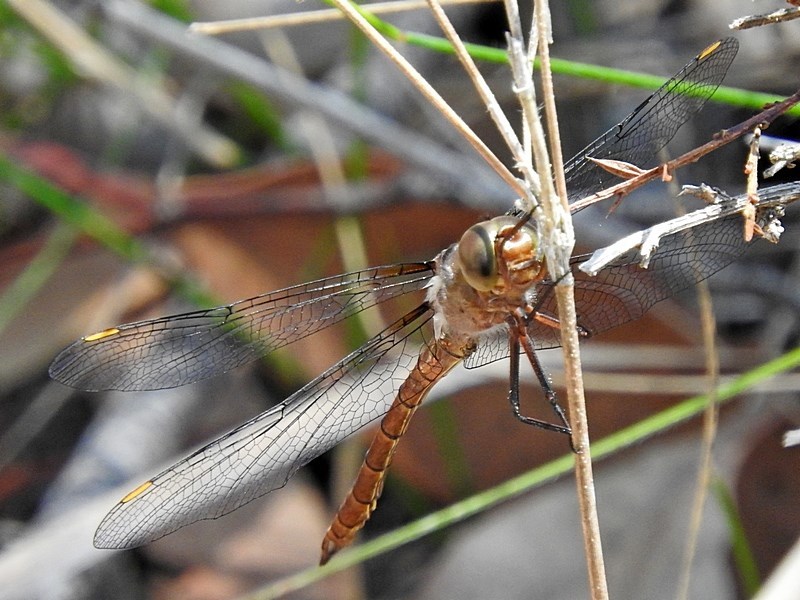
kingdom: Animalia
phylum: Arthropoda
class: Insecta
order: Odonata
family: Corduliidae
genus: Austrocordulia
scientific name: Austrocordulia refracta
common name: Eastern hawk
